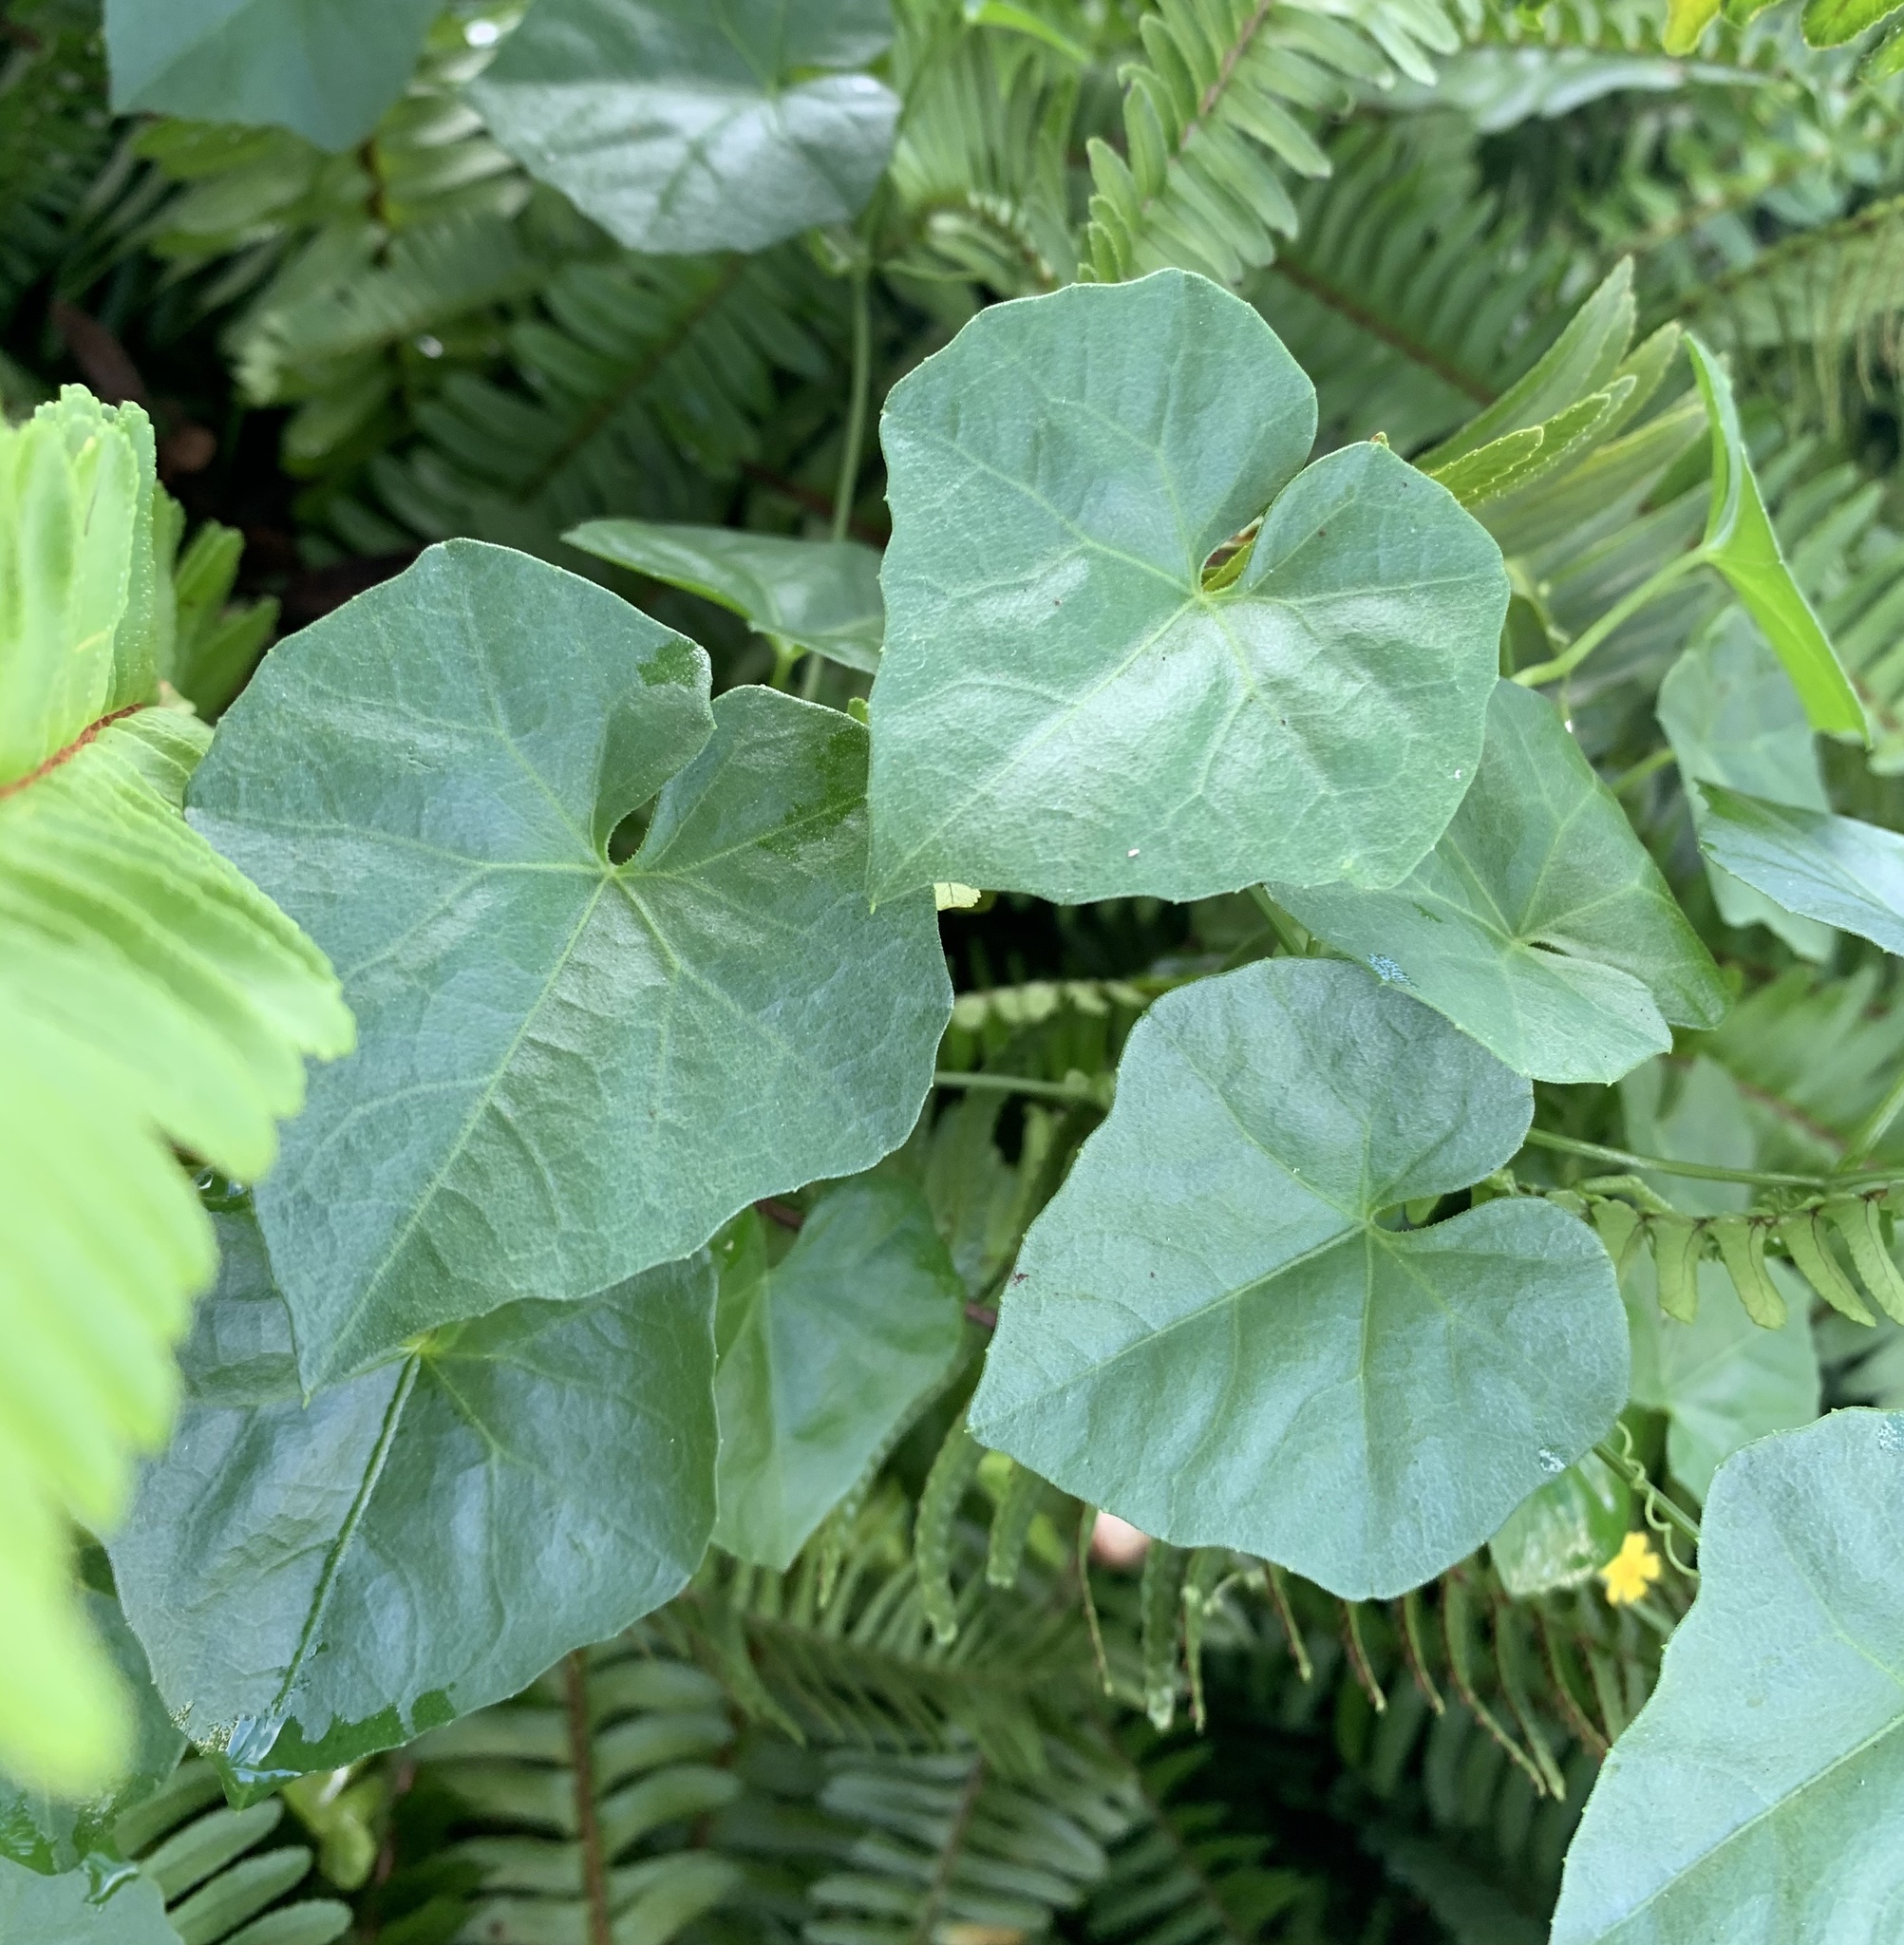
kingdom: Plantae
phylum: Tracheophyta
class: Magnoliopsida
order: Cucurbitales
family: Cucurbitaceae
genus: Melothria
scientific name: Melothria pendula
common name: Creeping-cucumber
